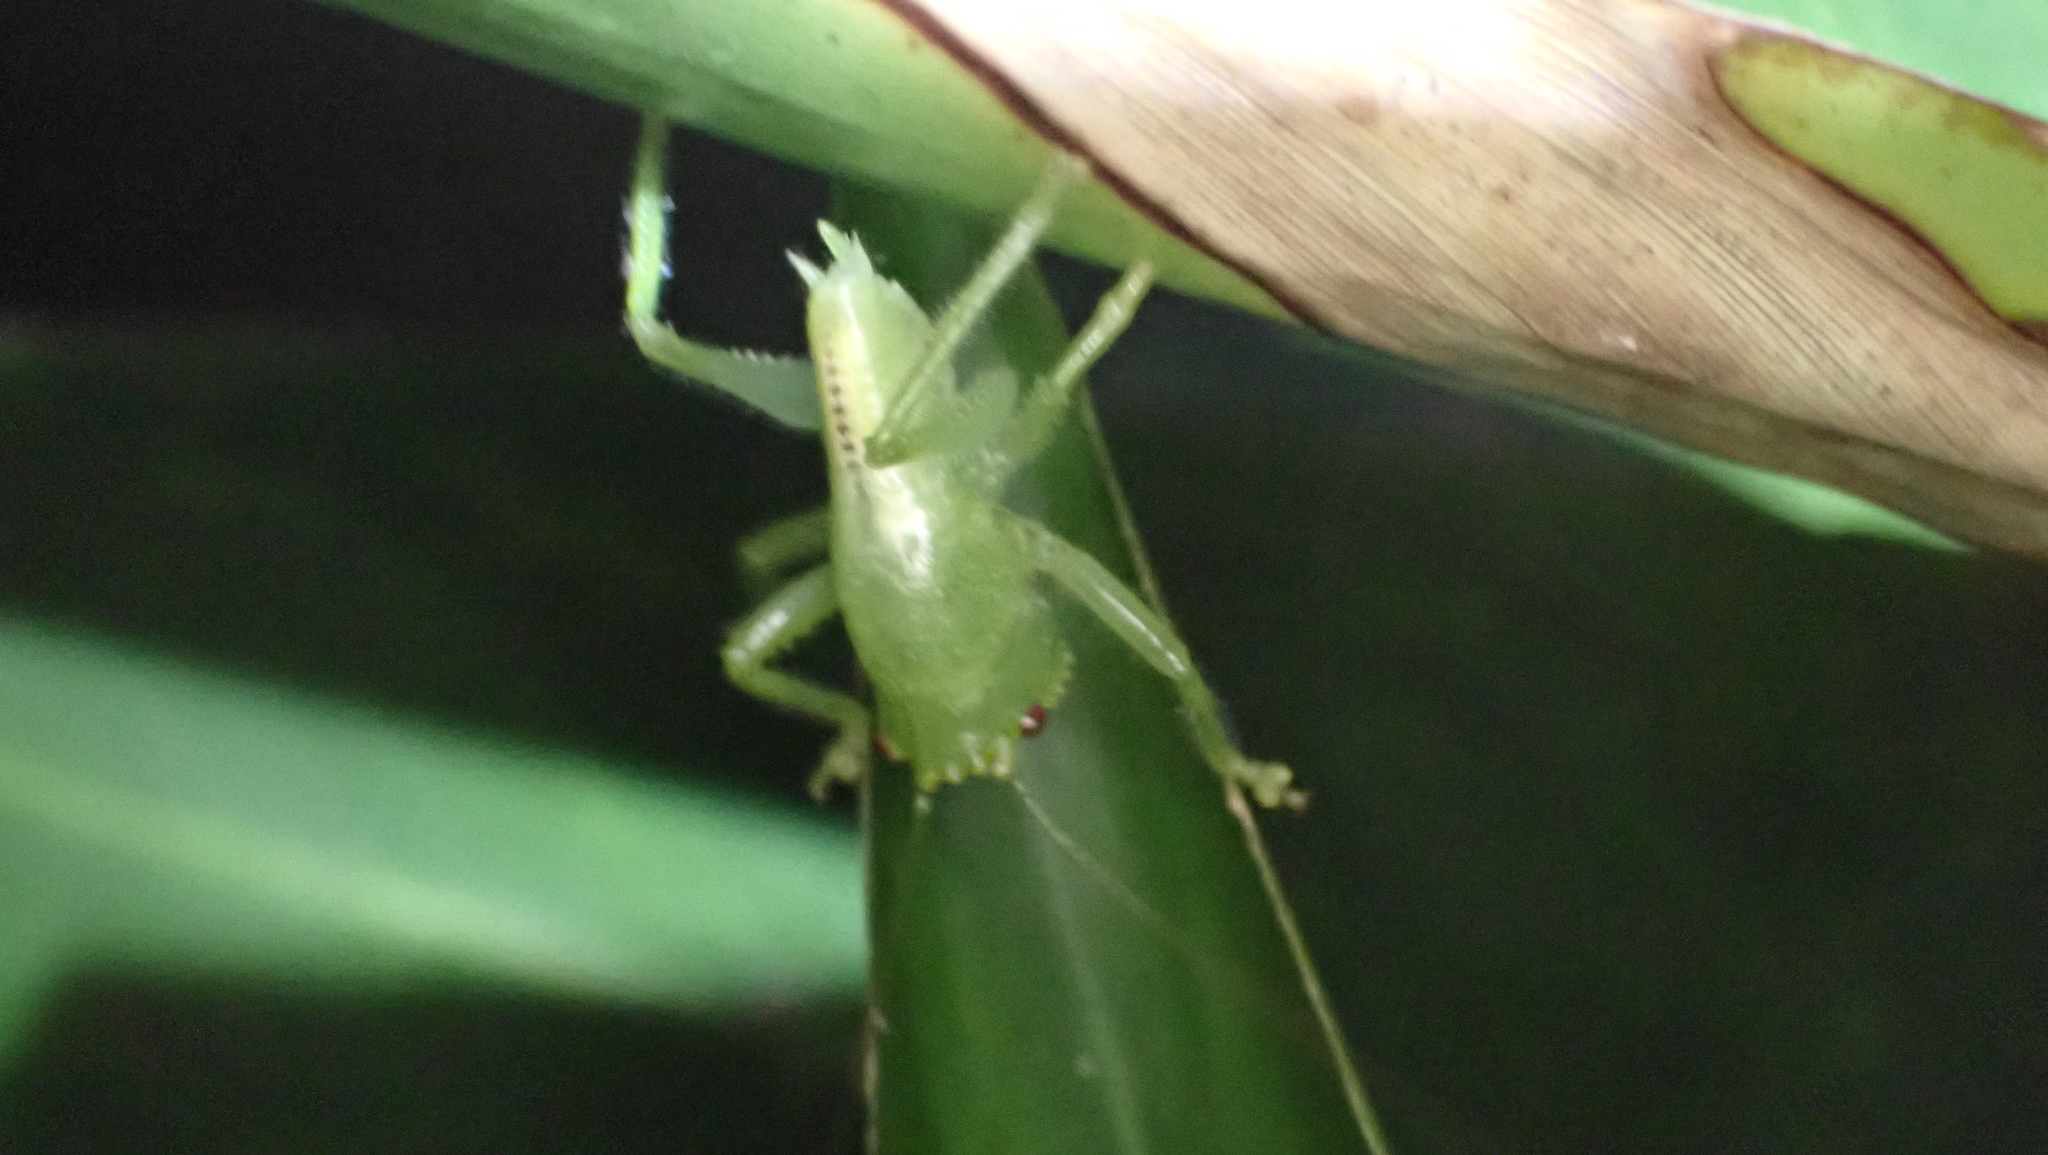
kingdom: Animalia
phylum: Arthropoda
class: Insecta
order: Orthoptera
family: Tettigoniidae
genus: Lirometopum
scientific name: Lirometopum coronatum
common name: Pitbull katydid
